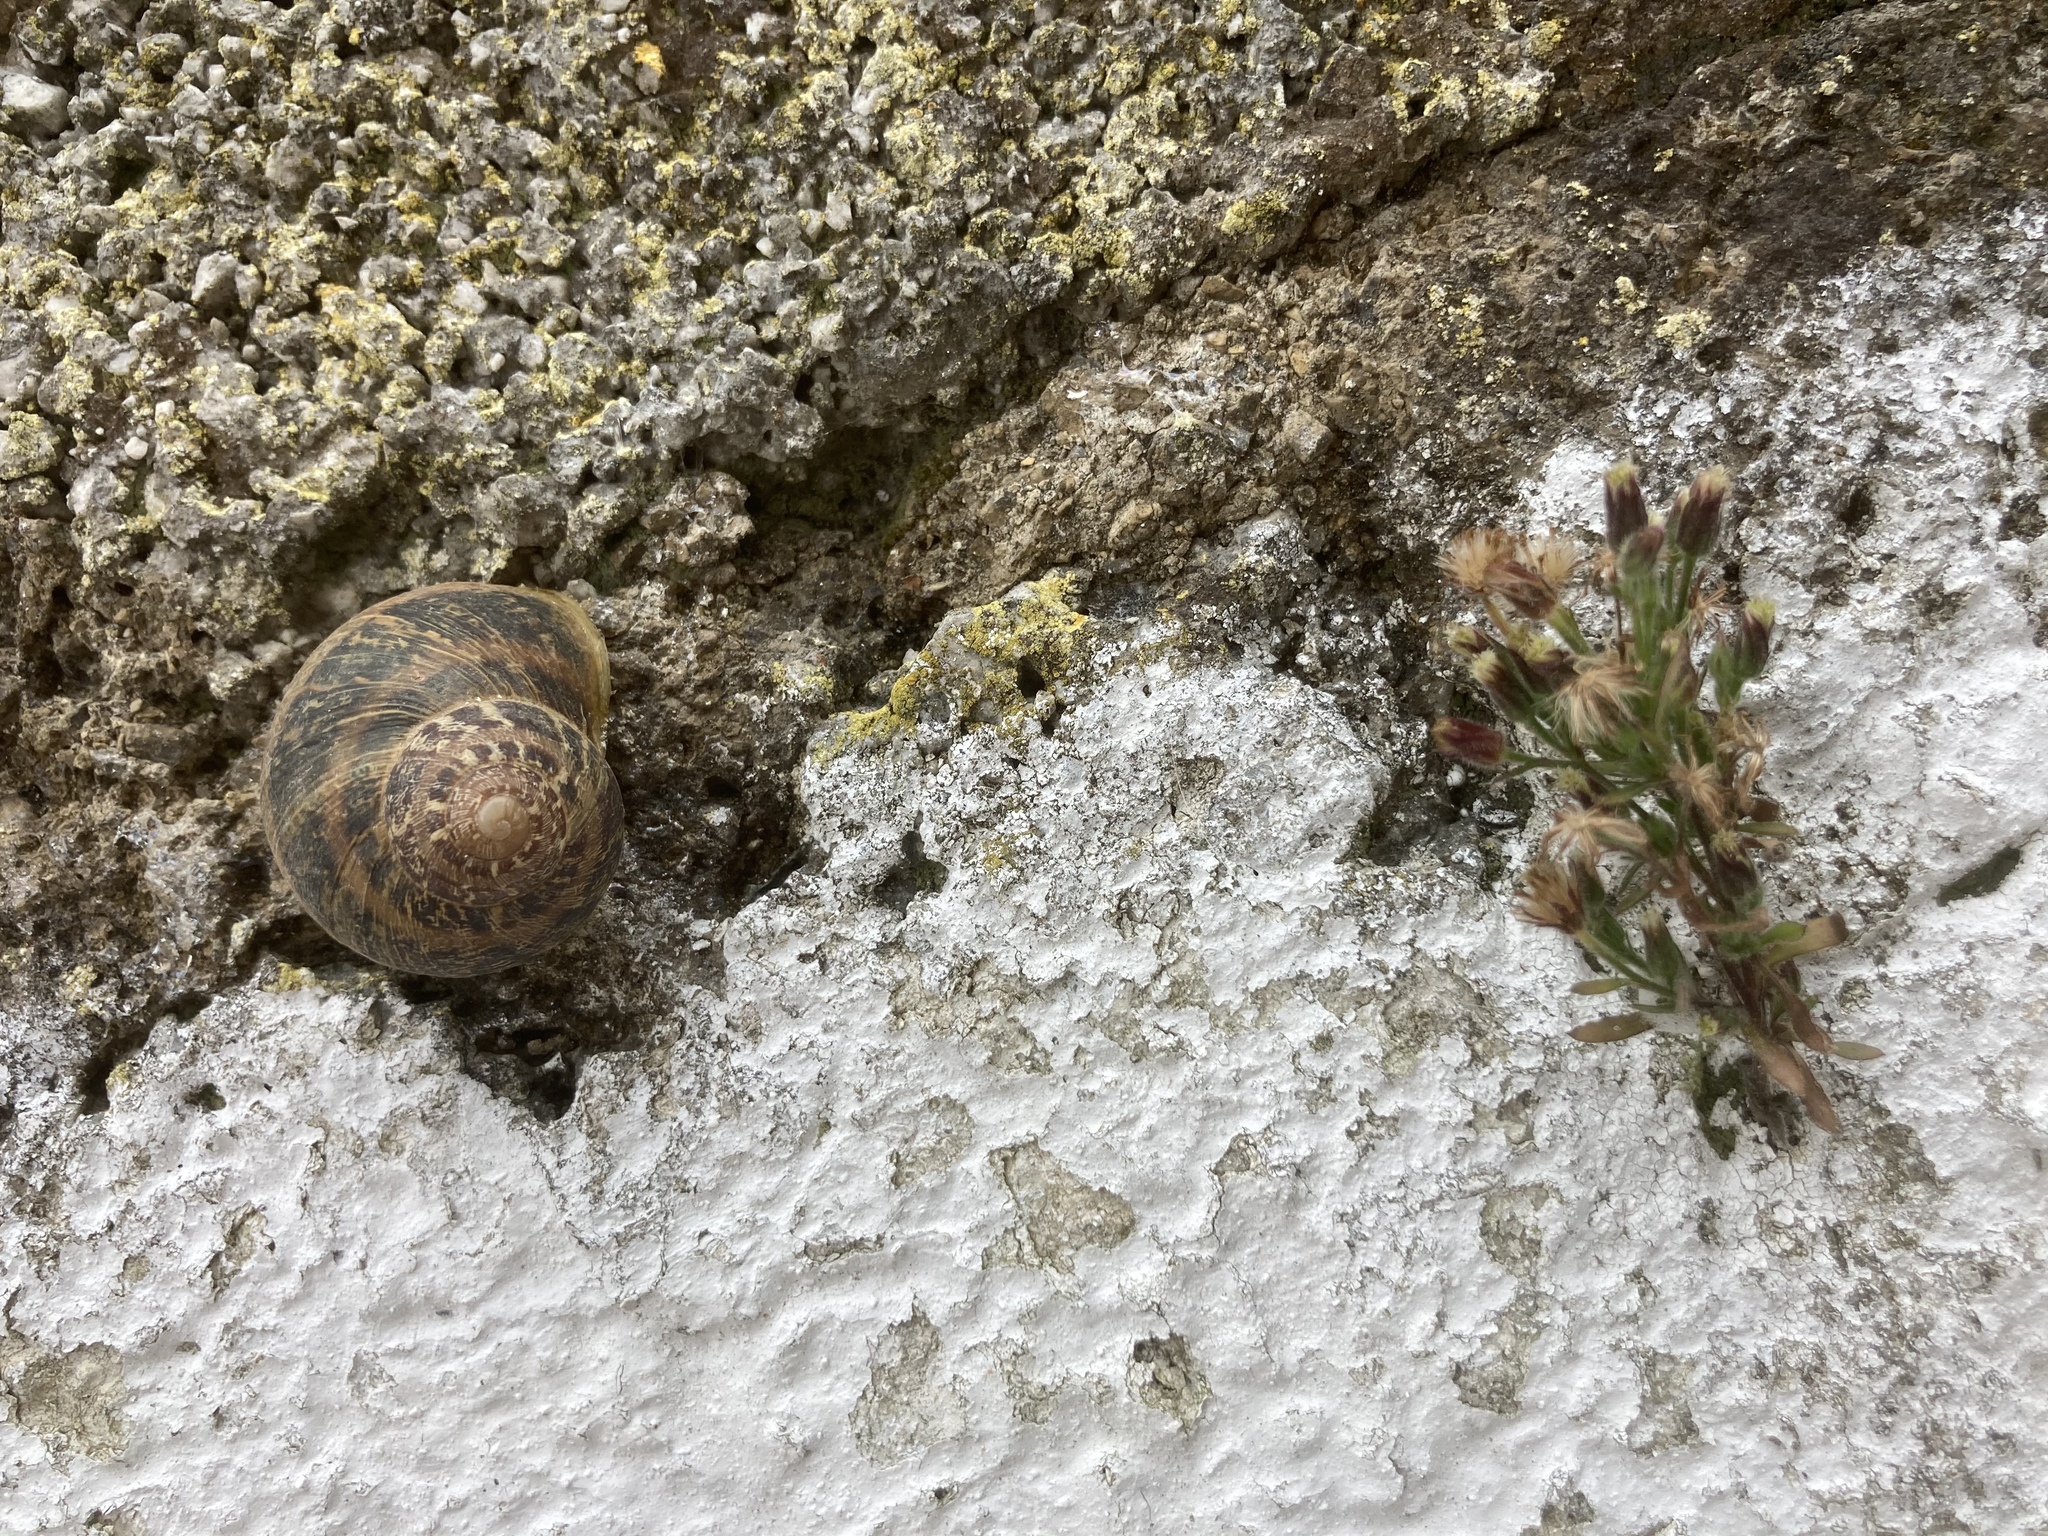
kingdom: Animalia
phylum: Mollusca
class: Gastropoda
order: Stylommatophora
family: Helicidae
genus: Cornu
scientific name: Cornu aspersum
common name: Brown garden snail
